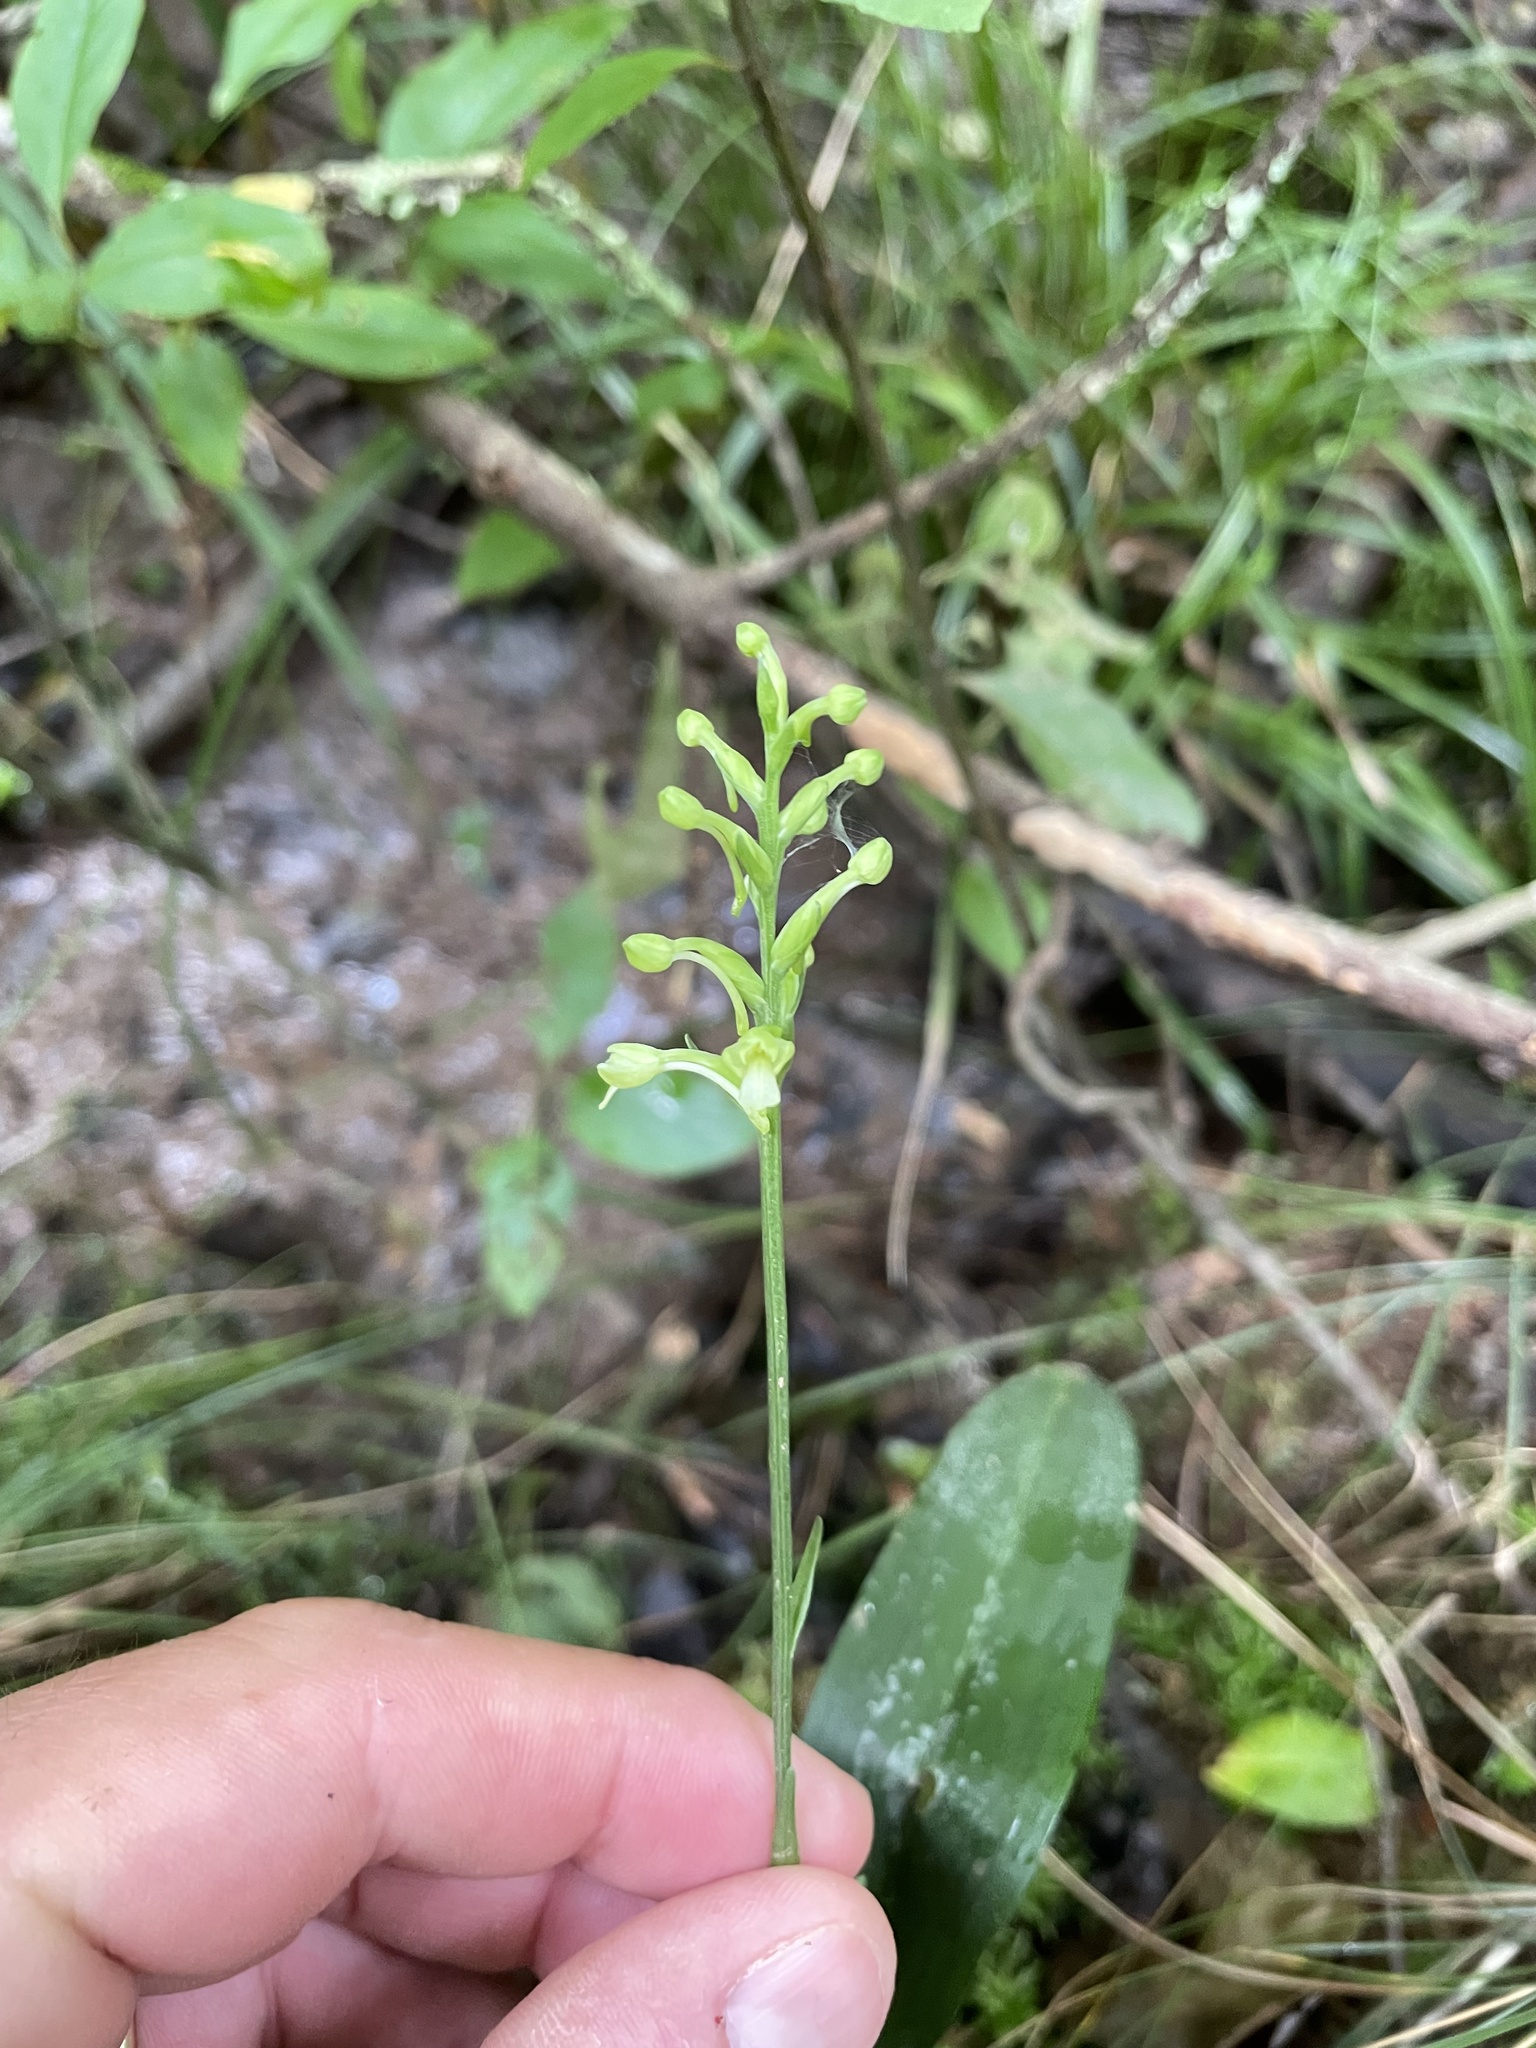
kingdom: Plantae
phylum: Tracheophyta
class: Liliopsida
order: Asparagales
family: Orchidaceae
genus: Platanthera
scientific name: Platanthera clavellata
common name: Club-spur orchid
